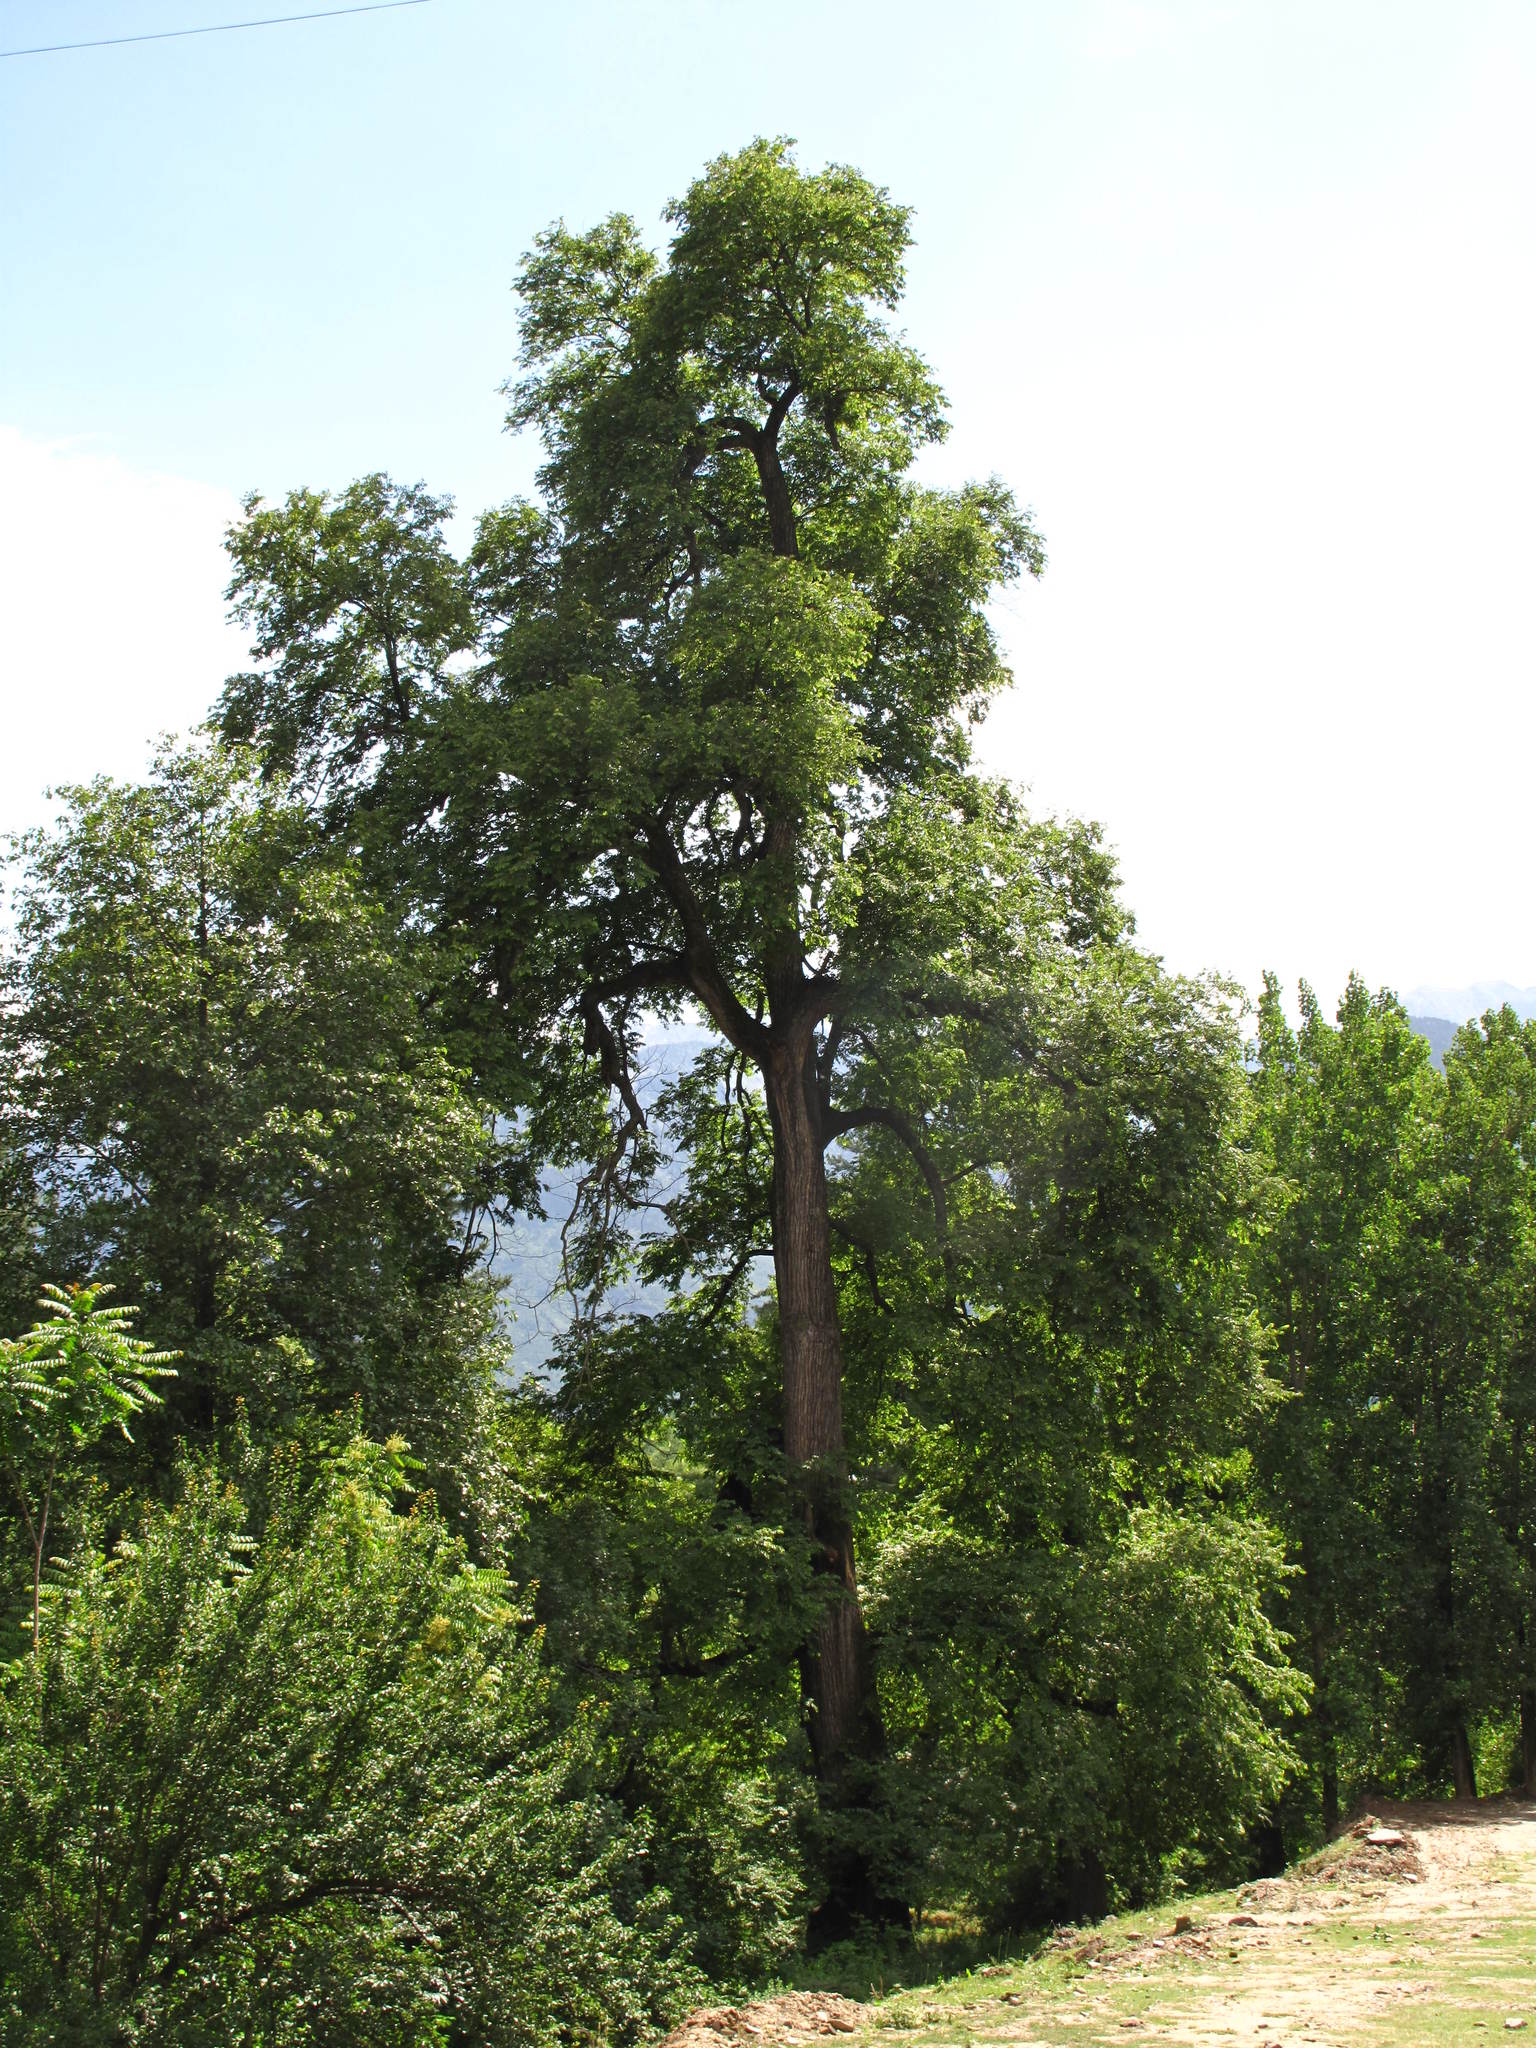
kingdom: Plantae
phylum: Tracheophyta
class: Magnoliopsida
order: Rosales
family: Ulmaceae
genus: Ulmus
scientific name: Ulmus wallichiana
